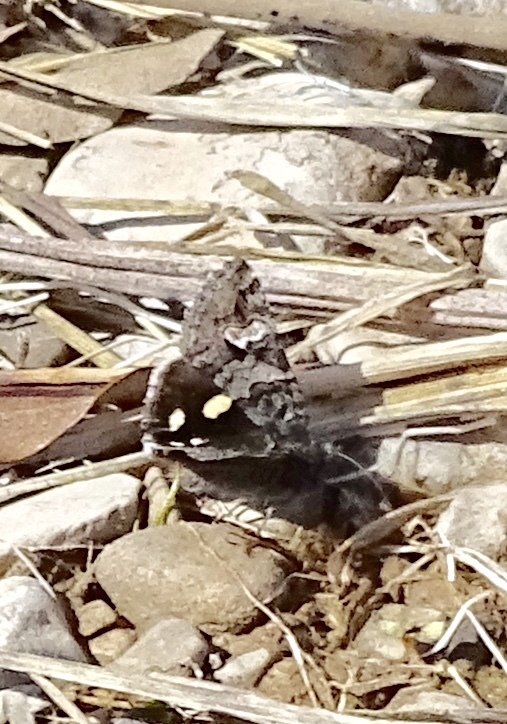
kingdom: Animalia
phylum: Arthropoda
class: Insecta
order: Lepidoptera
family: Erebidae
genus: Litocala
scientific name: Litocala sexsignata
